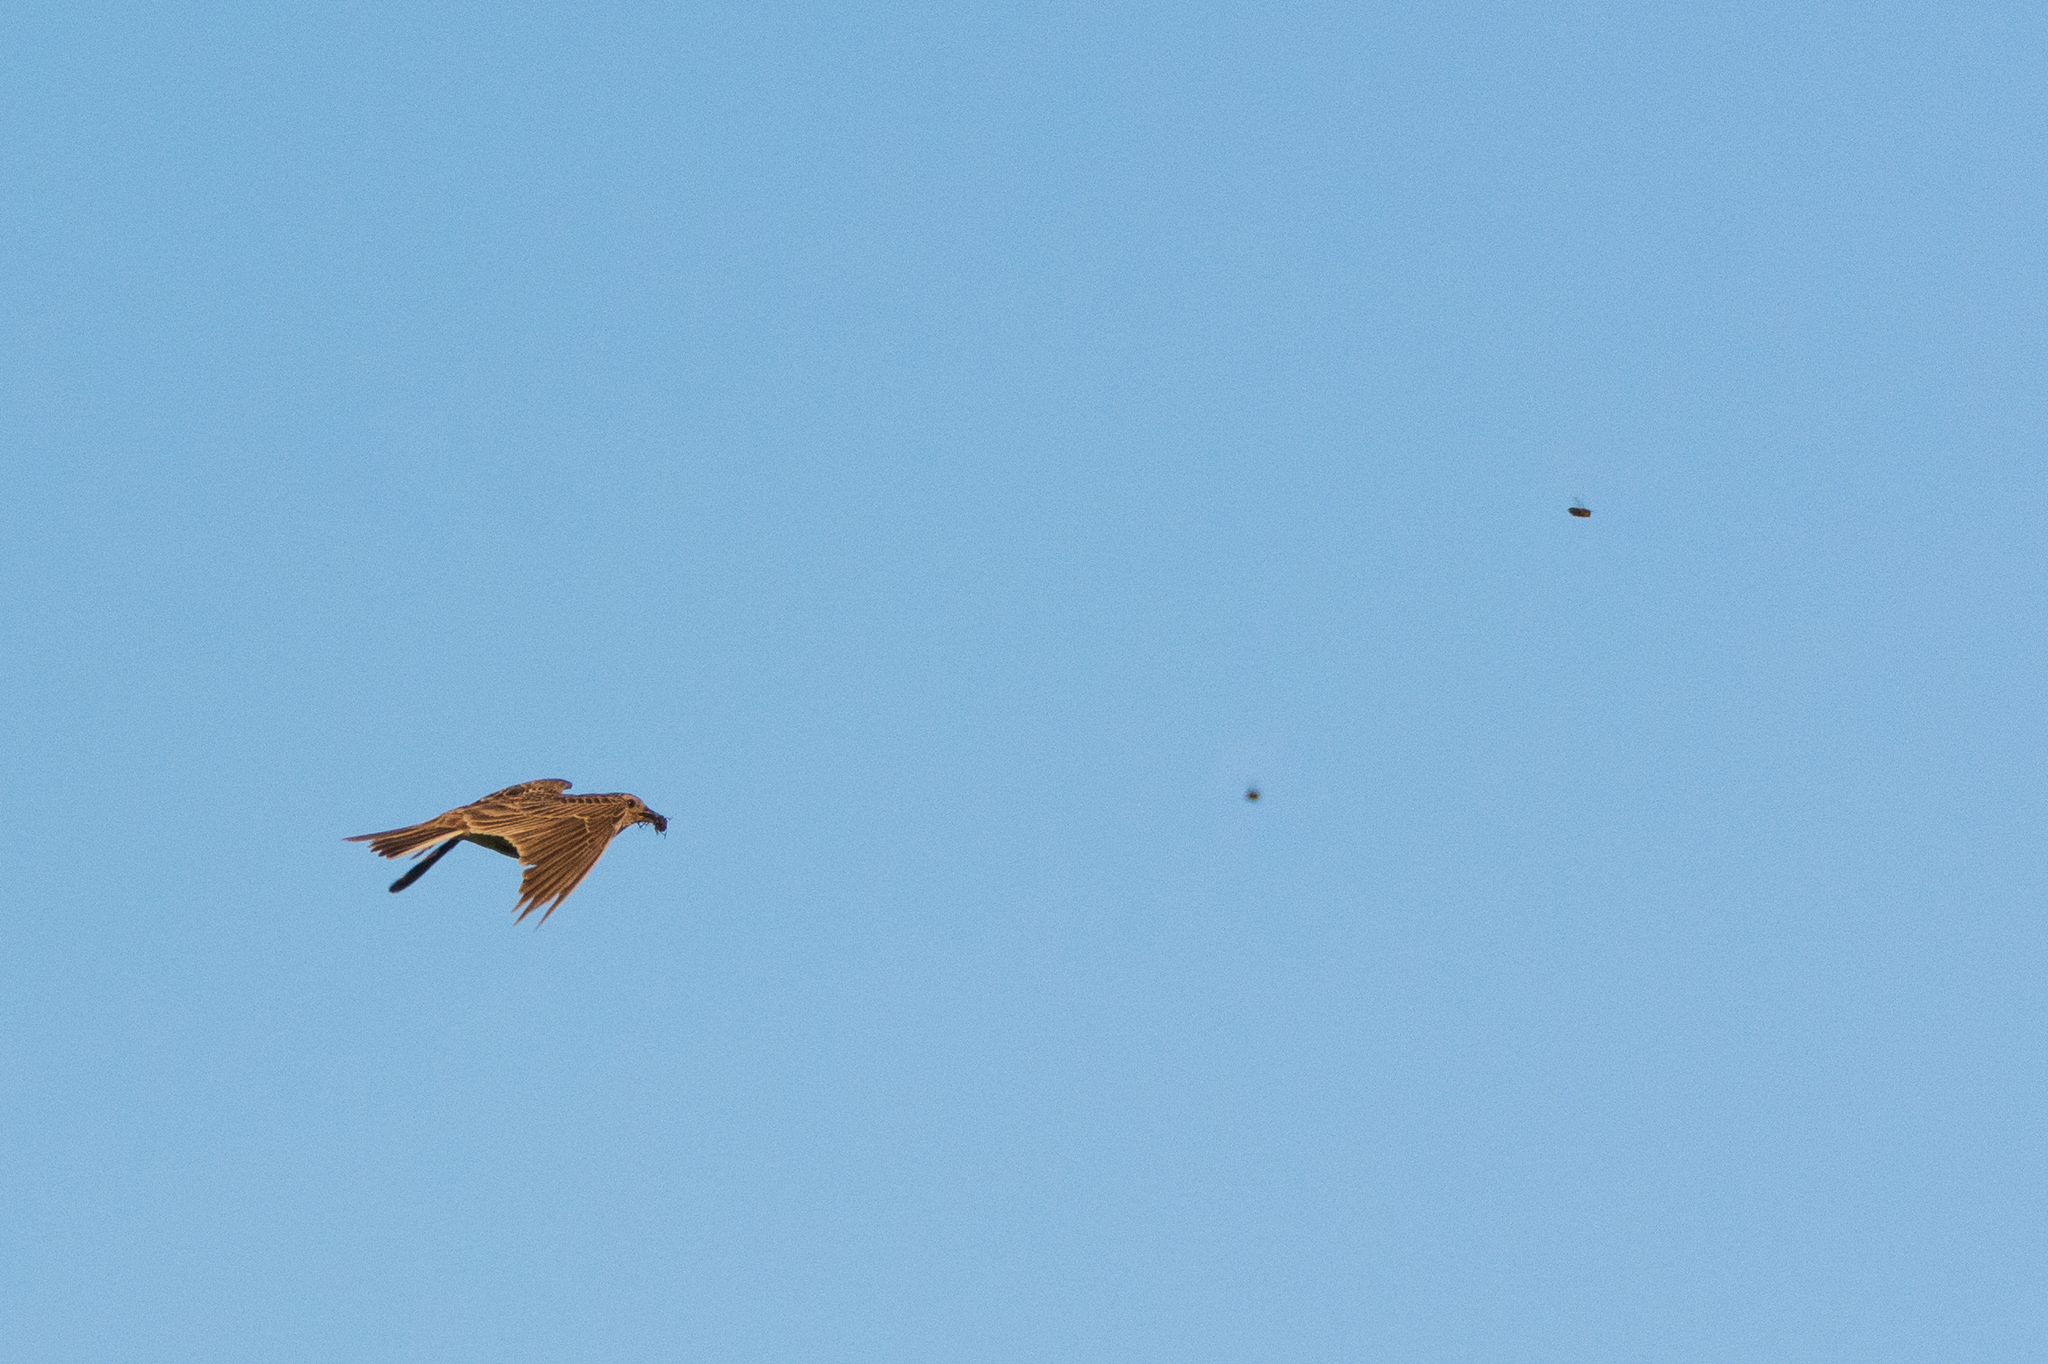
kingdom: Animalia
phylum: Chordata
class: Aves
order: Passeriformes
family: Alaudidae
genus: Alauda
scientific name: Alauda arvensis
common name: Eurasian skylark
